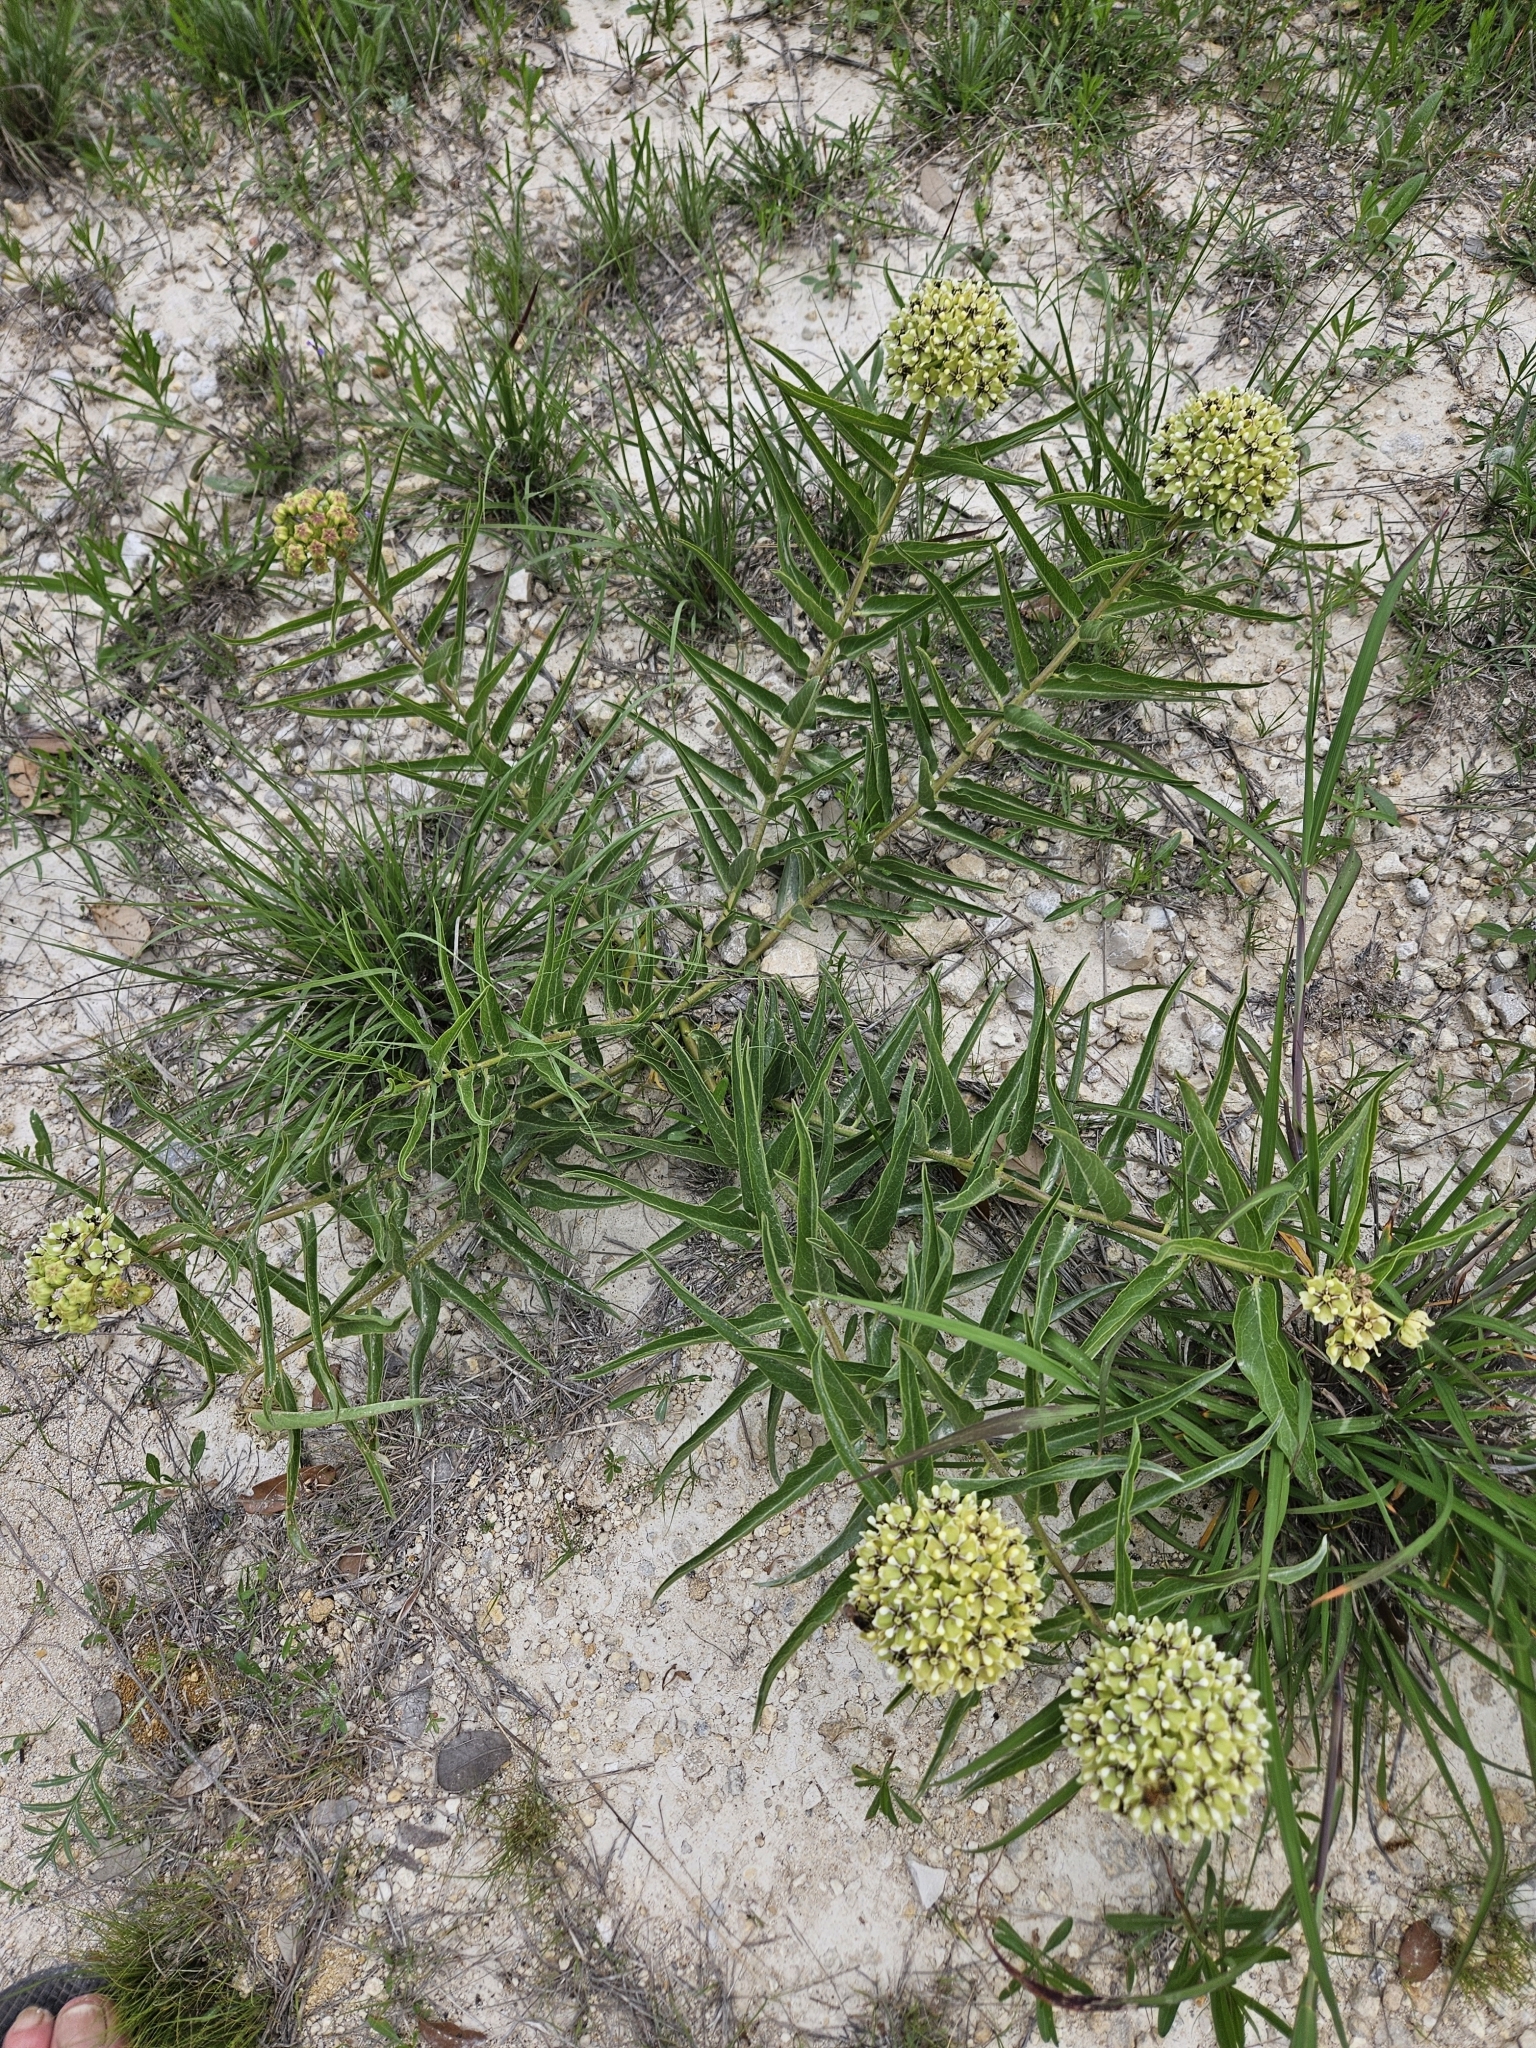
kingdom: Plantae
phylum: Tracheophyta
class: Magnoliopsida
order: Gentianales
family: Apocynaceae
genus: Asclepias
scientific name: Asclepias asperula
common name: Antelope horns
